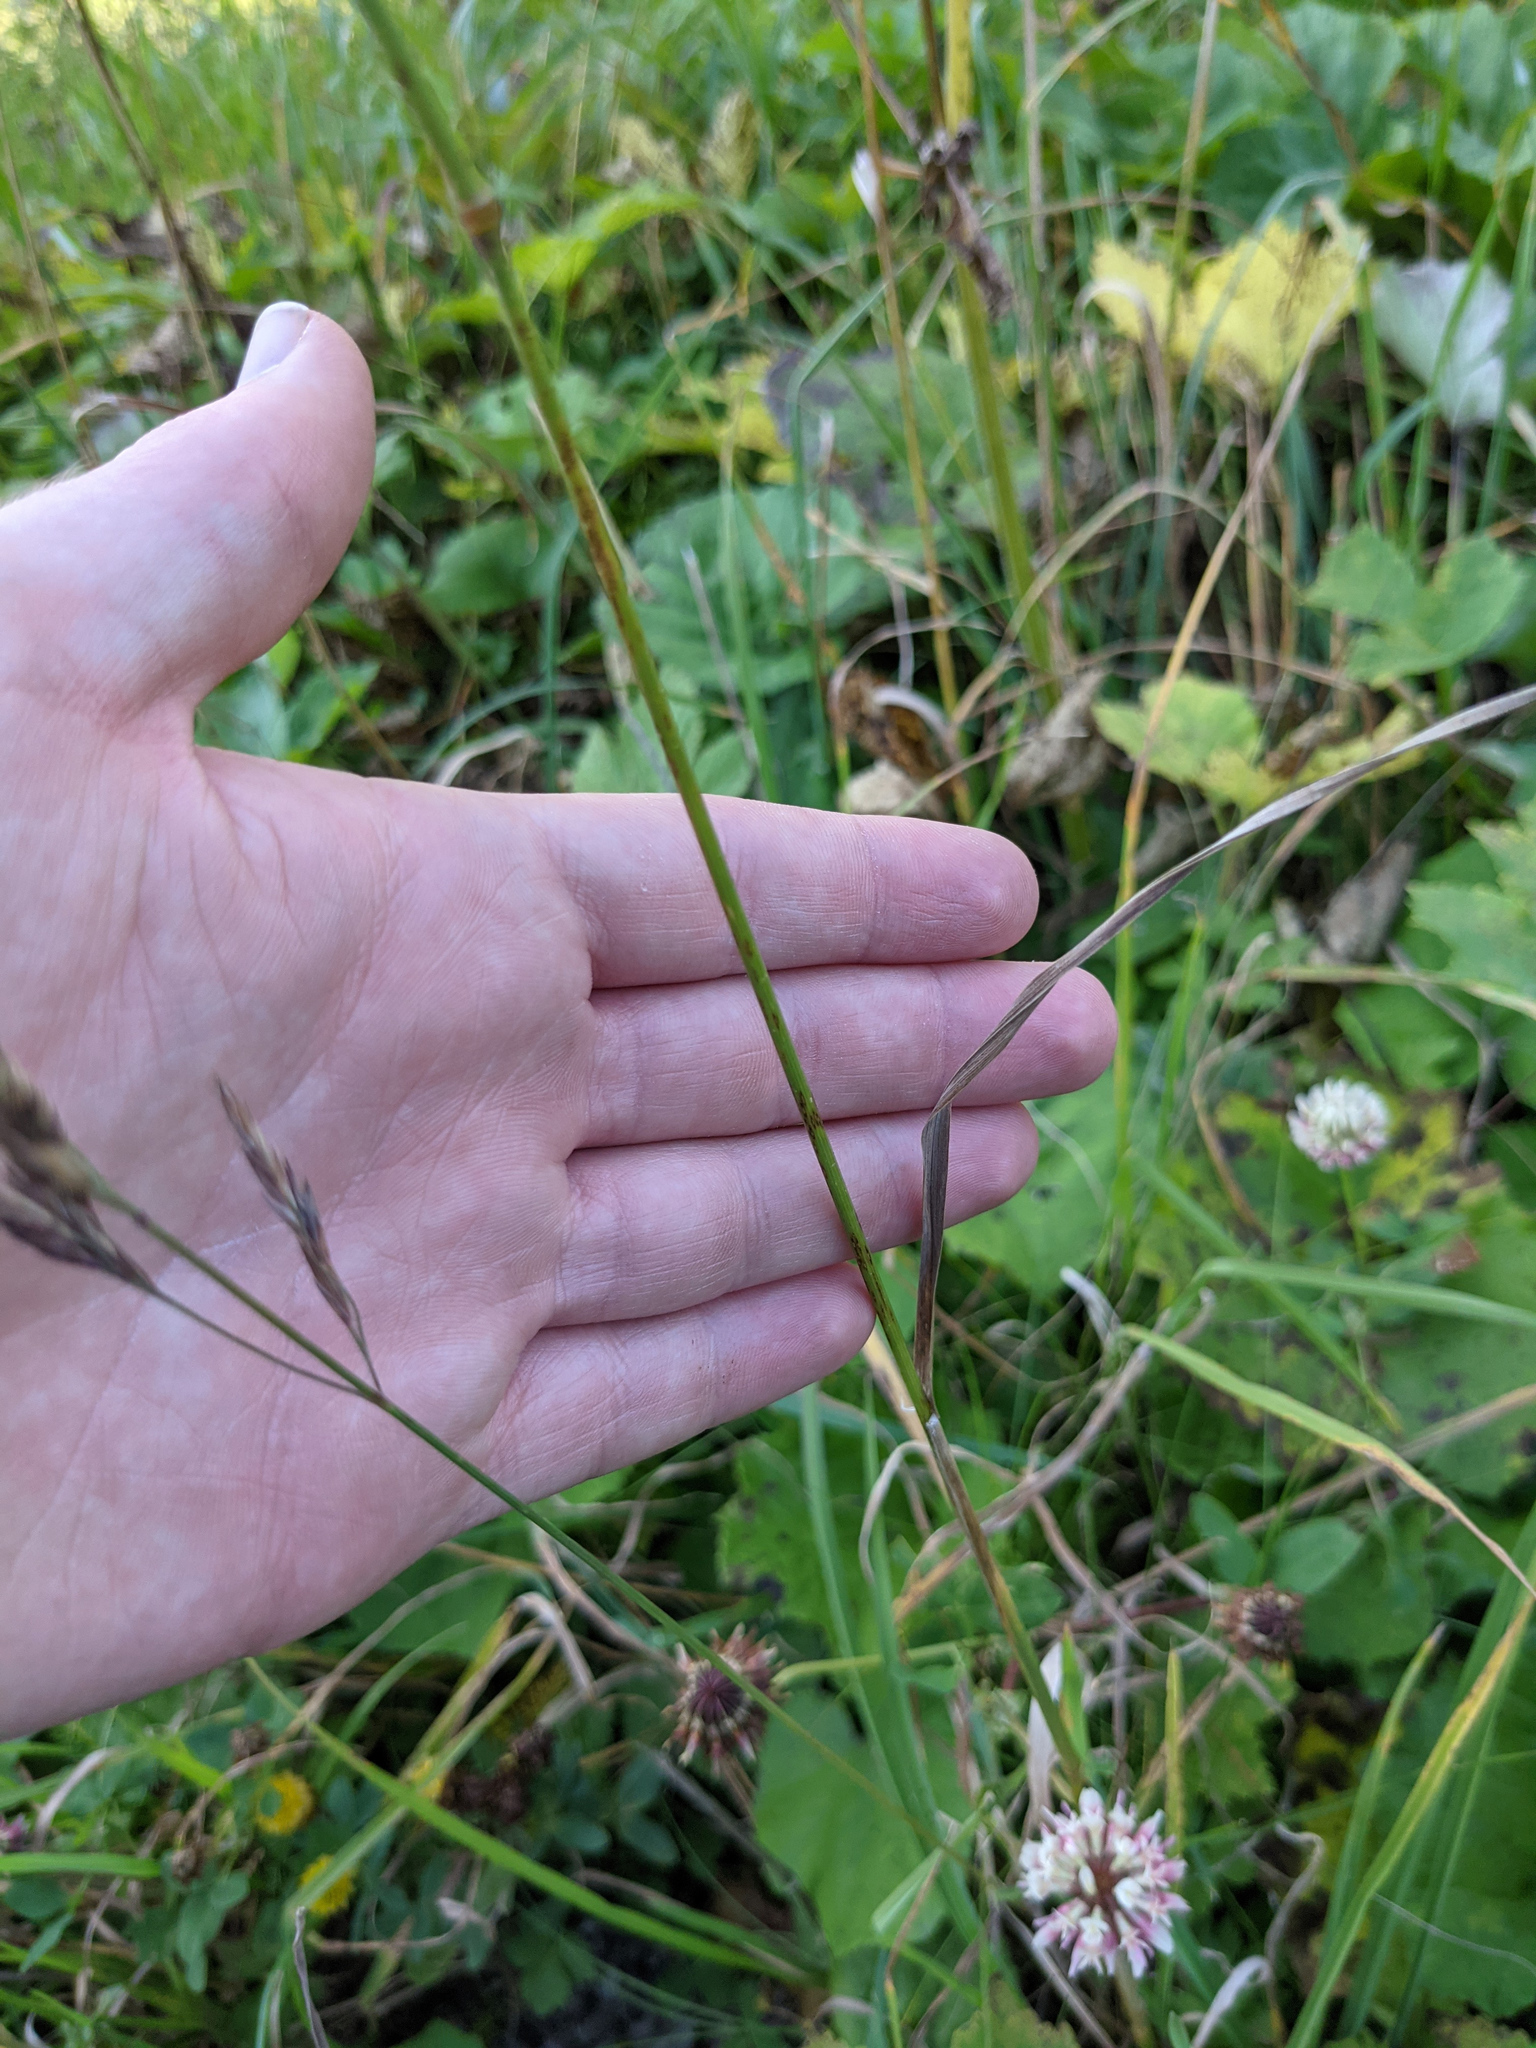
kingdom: Plantae
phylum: Tracheophyta
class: Liliopsida
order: Poales
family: Poaceae
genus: Dactylis
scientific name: Dactylis glomerata
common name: Orchardgrass
